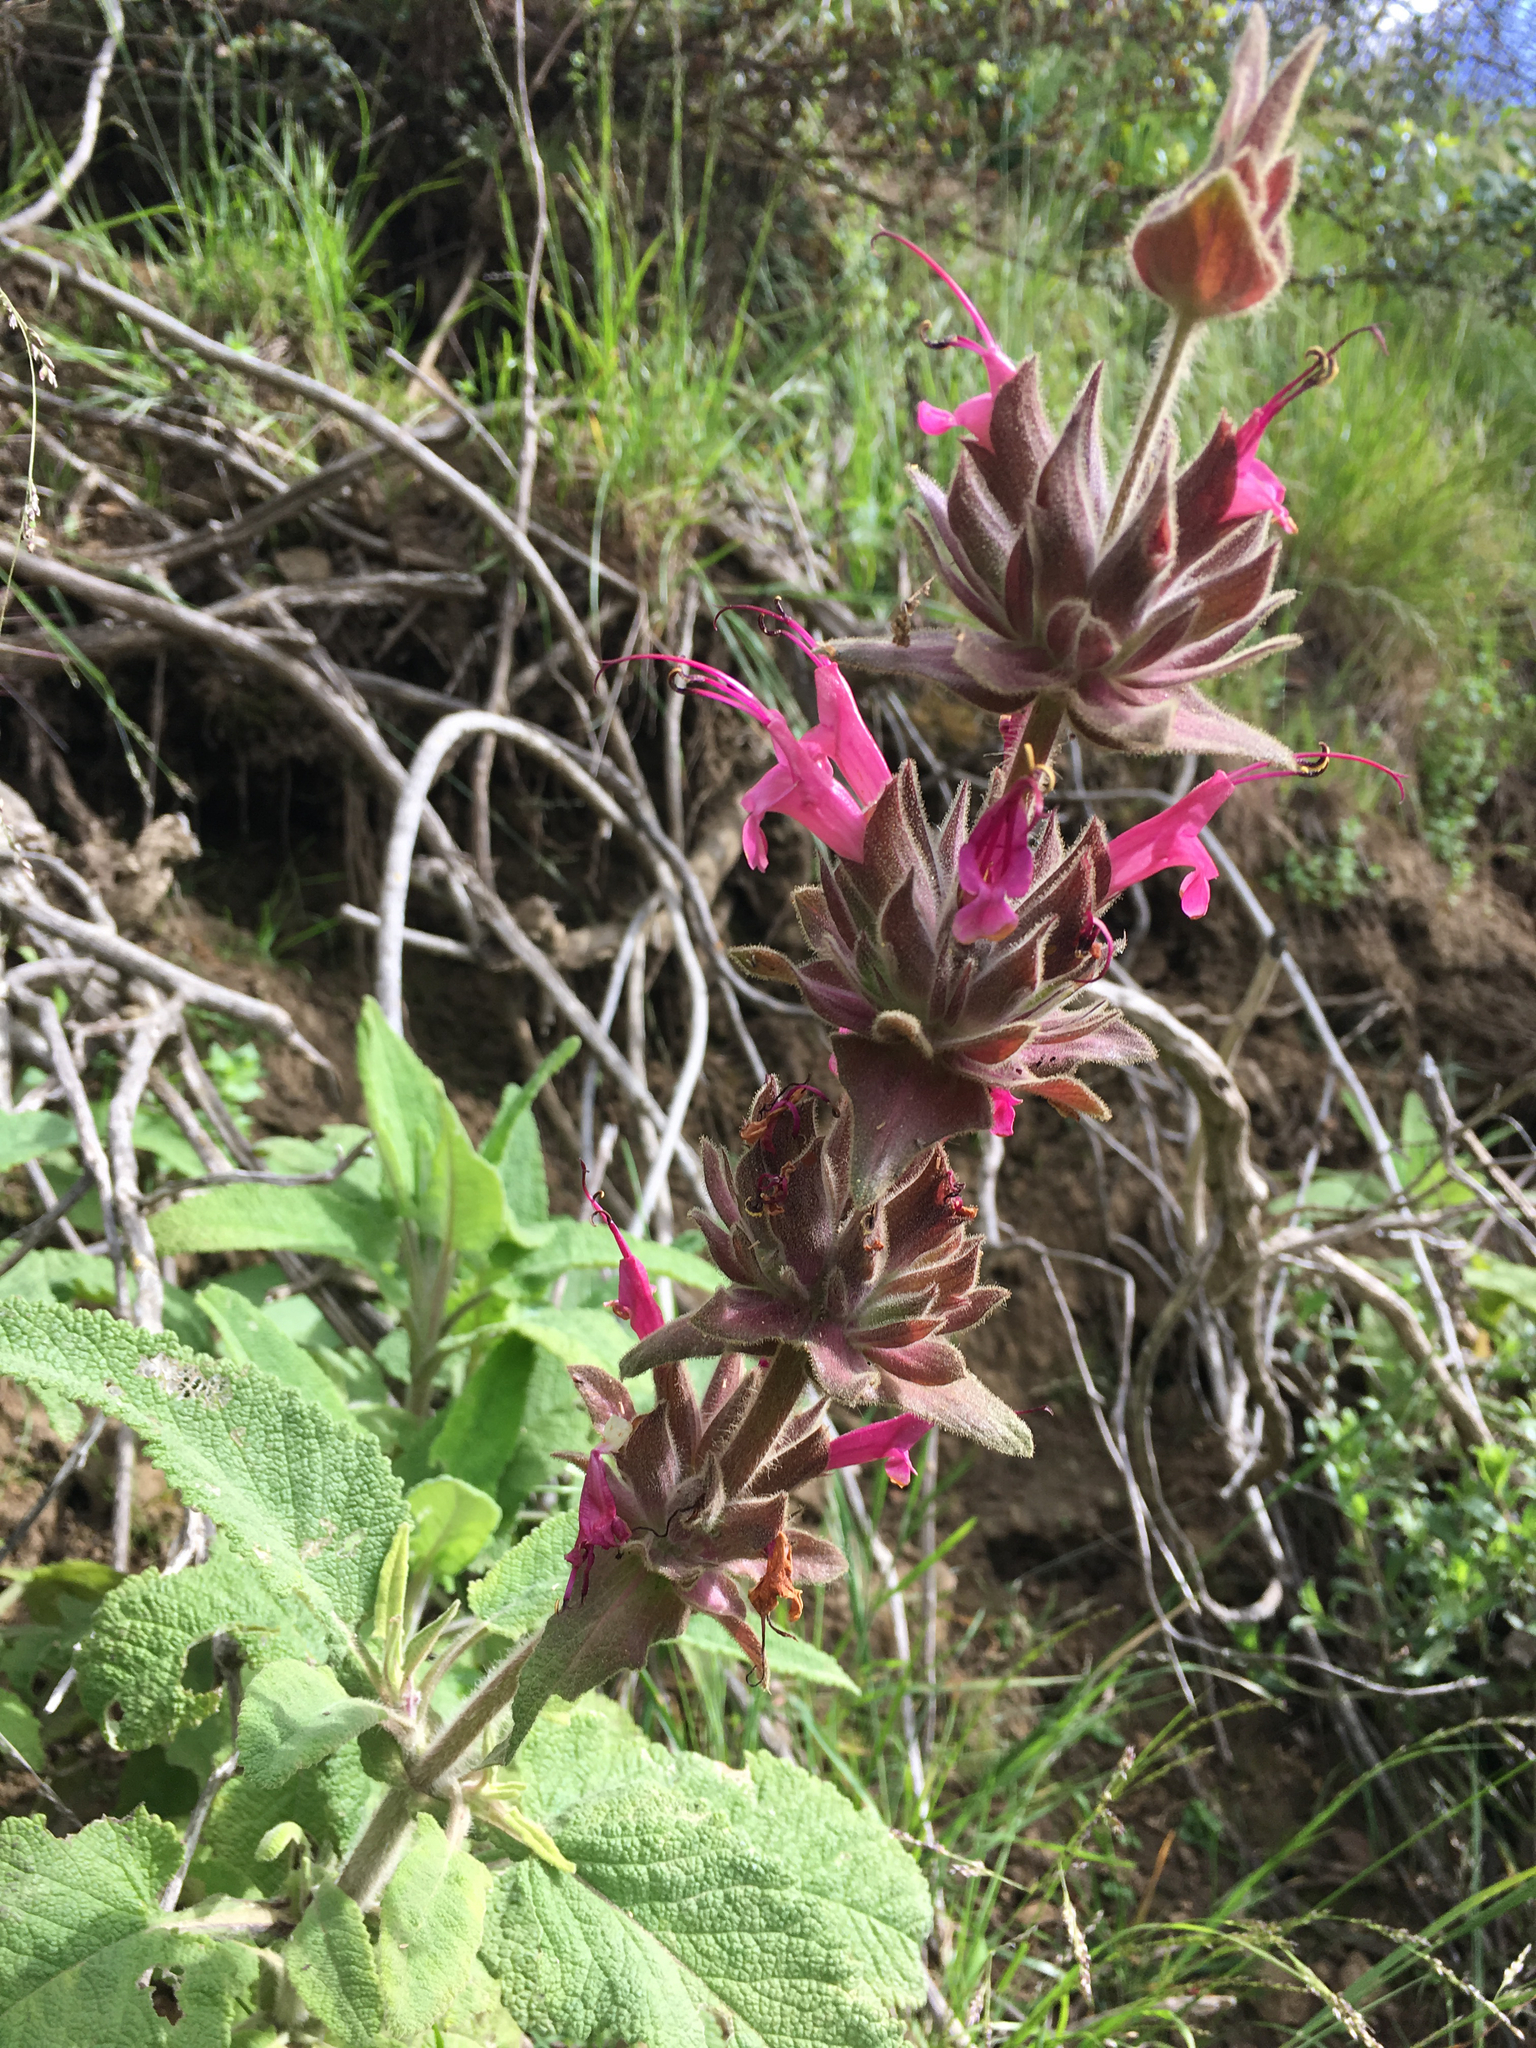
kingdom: Plantae
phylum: Tracheophyta
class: Magnoliopsida
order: Lamiales
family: Lamiaceae
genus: Salvia
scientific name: Salvia spathacea
